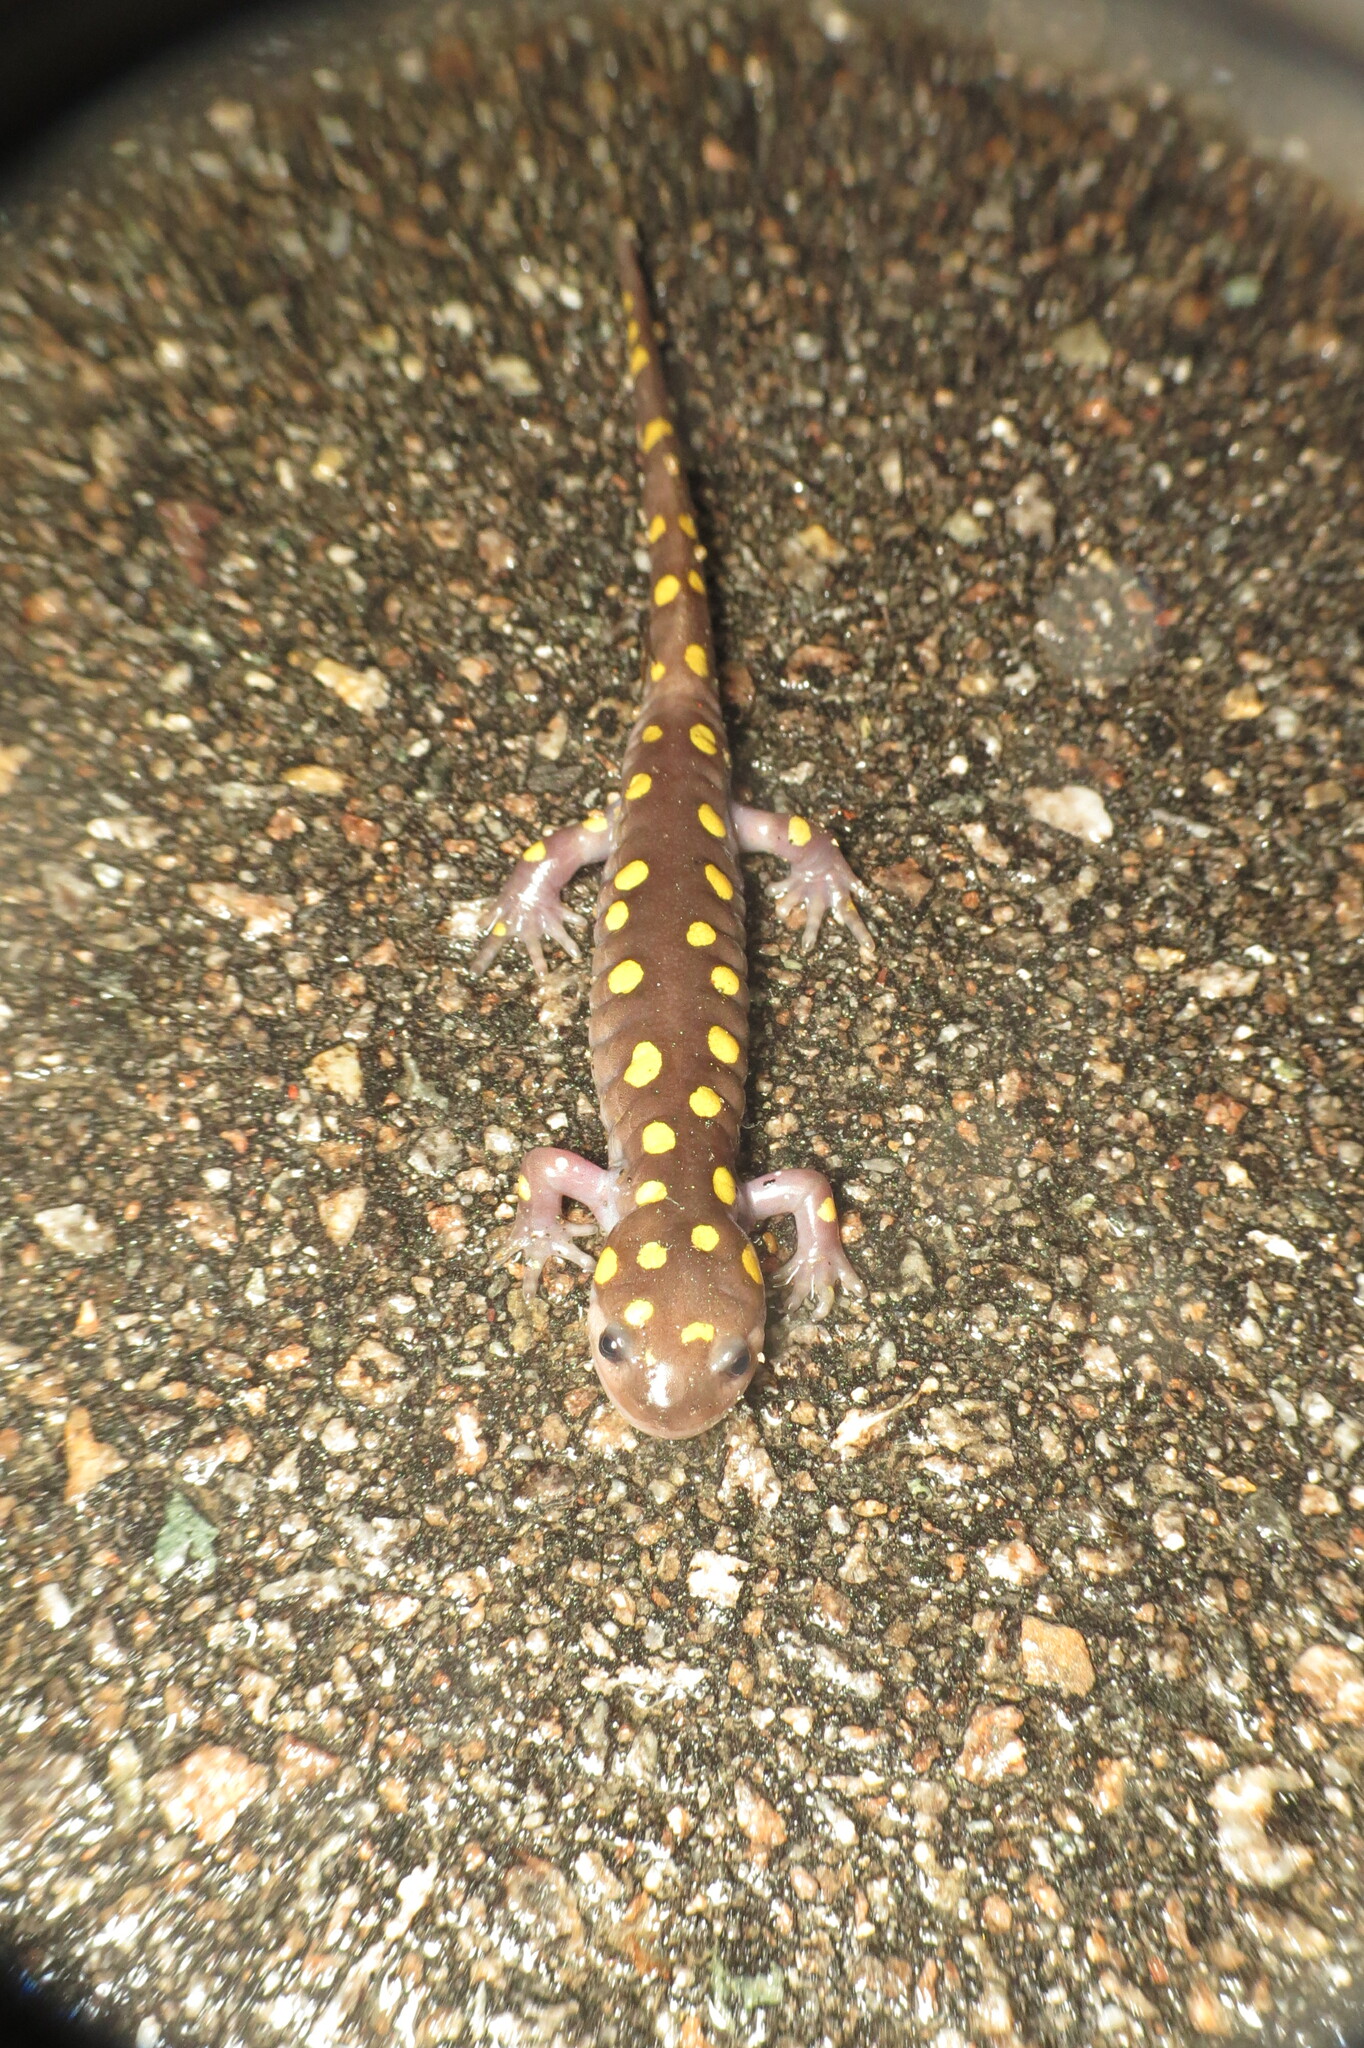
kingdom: Animalia
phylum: Chordata
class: Amphibia
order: Caudata
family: Ambystomatidae
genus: Ambystoma
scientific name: Ambystoma maculatum
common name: Spotted salamander
